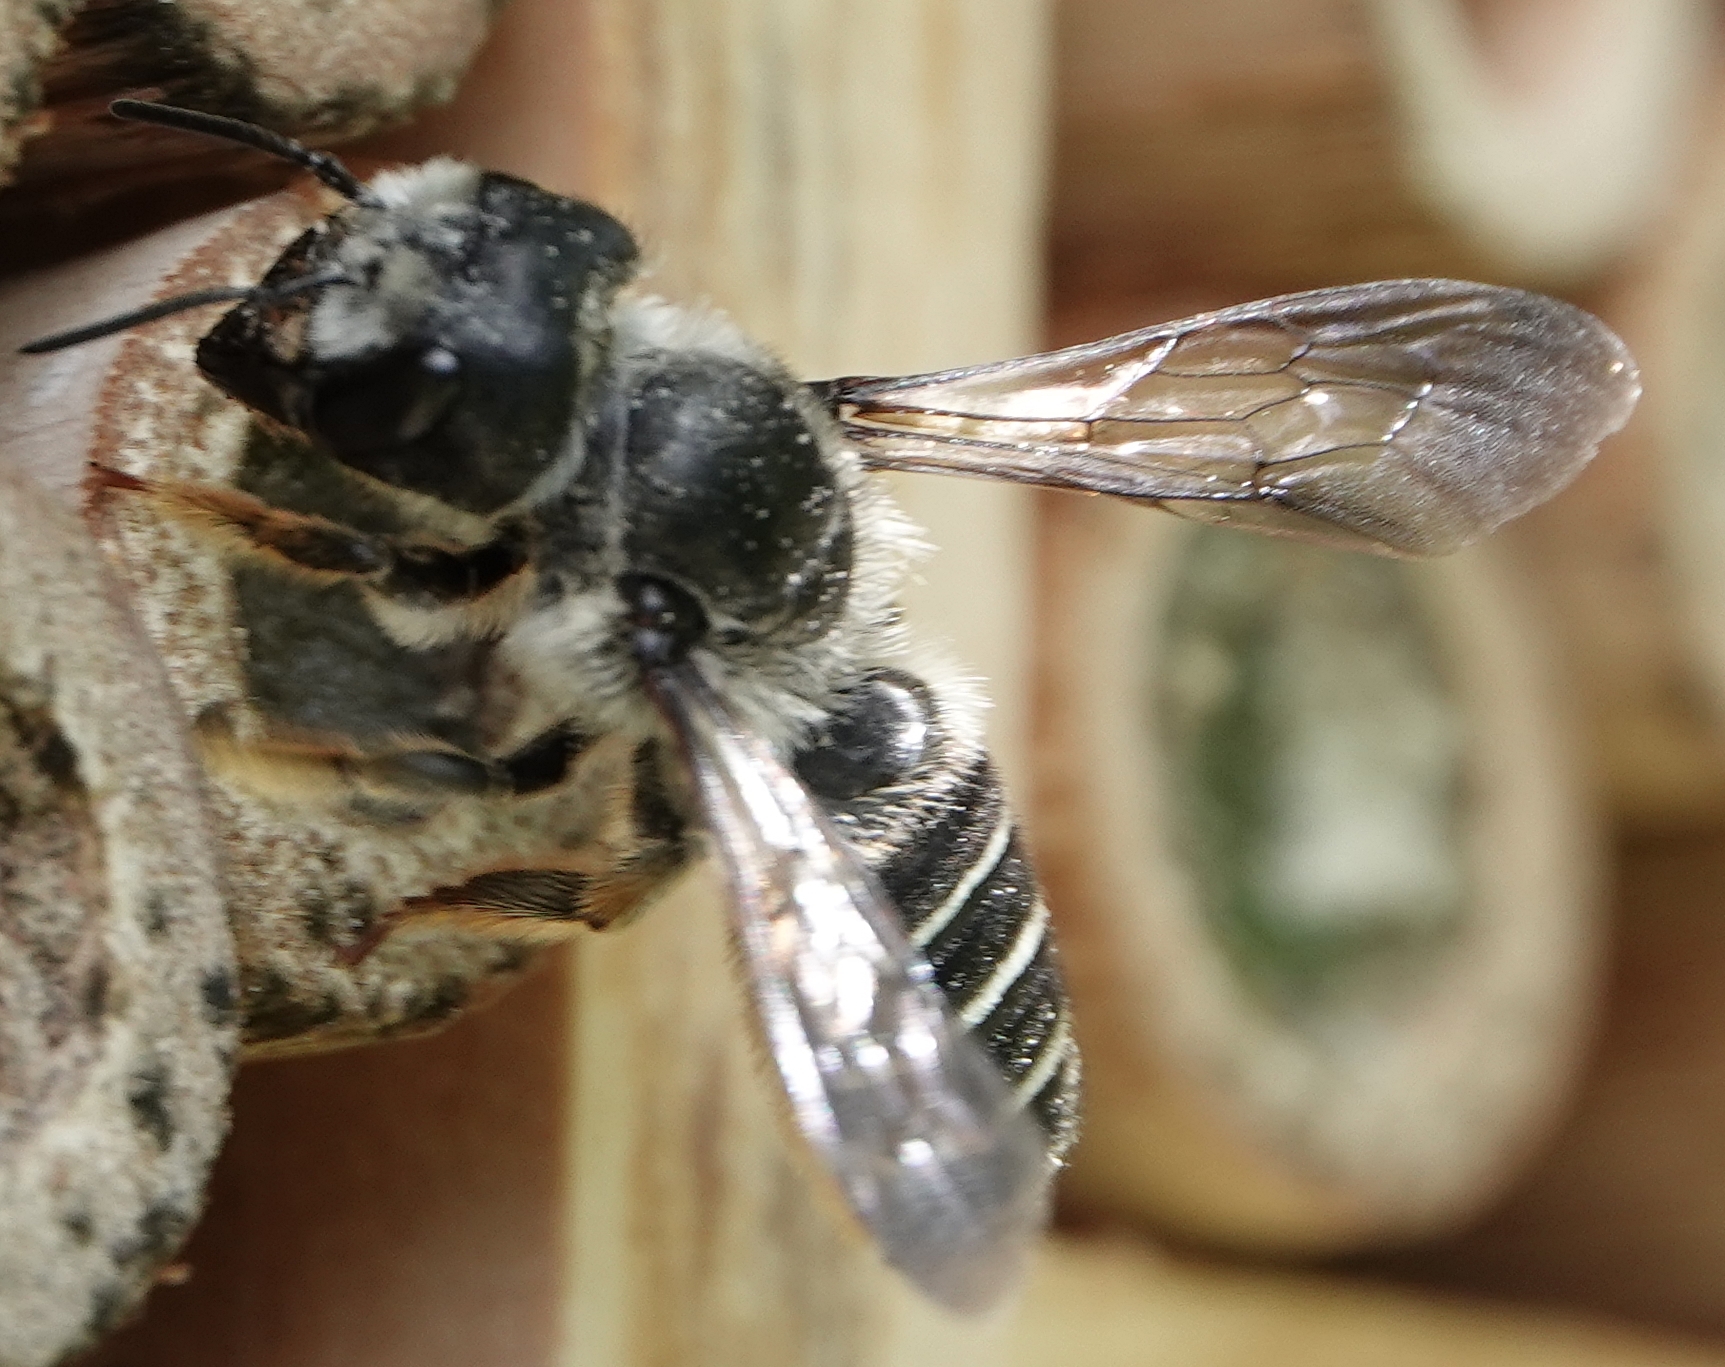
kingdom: Animalia
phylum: Arthropoda
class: Insecta
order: Hymenoptera
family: Megachilidae
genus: Megachile
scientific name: Megachile pugnata
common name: Pugnacious leafcutter bee
